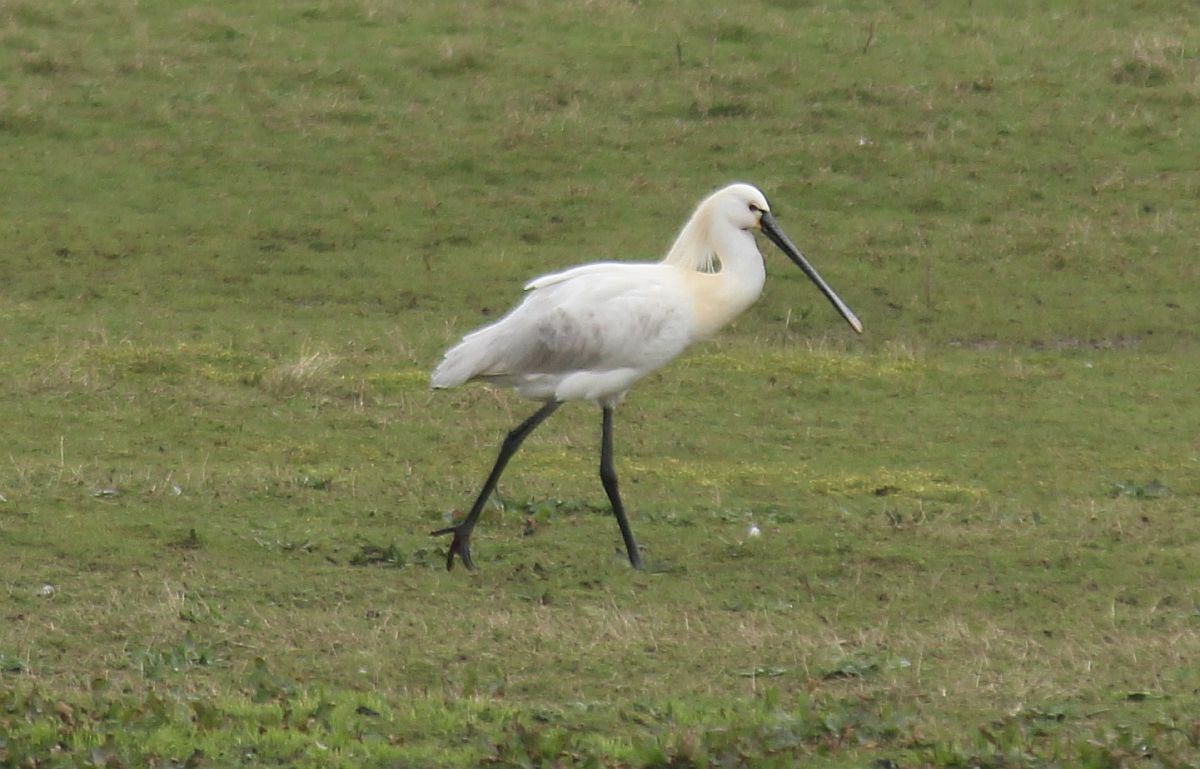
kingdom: Animalia
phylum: Chordata
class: Aves
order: Pelecaniformes
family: Threskiornithidae
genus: Platalea
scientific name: Platalea leucorodia
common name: Eurasian spoonbill
